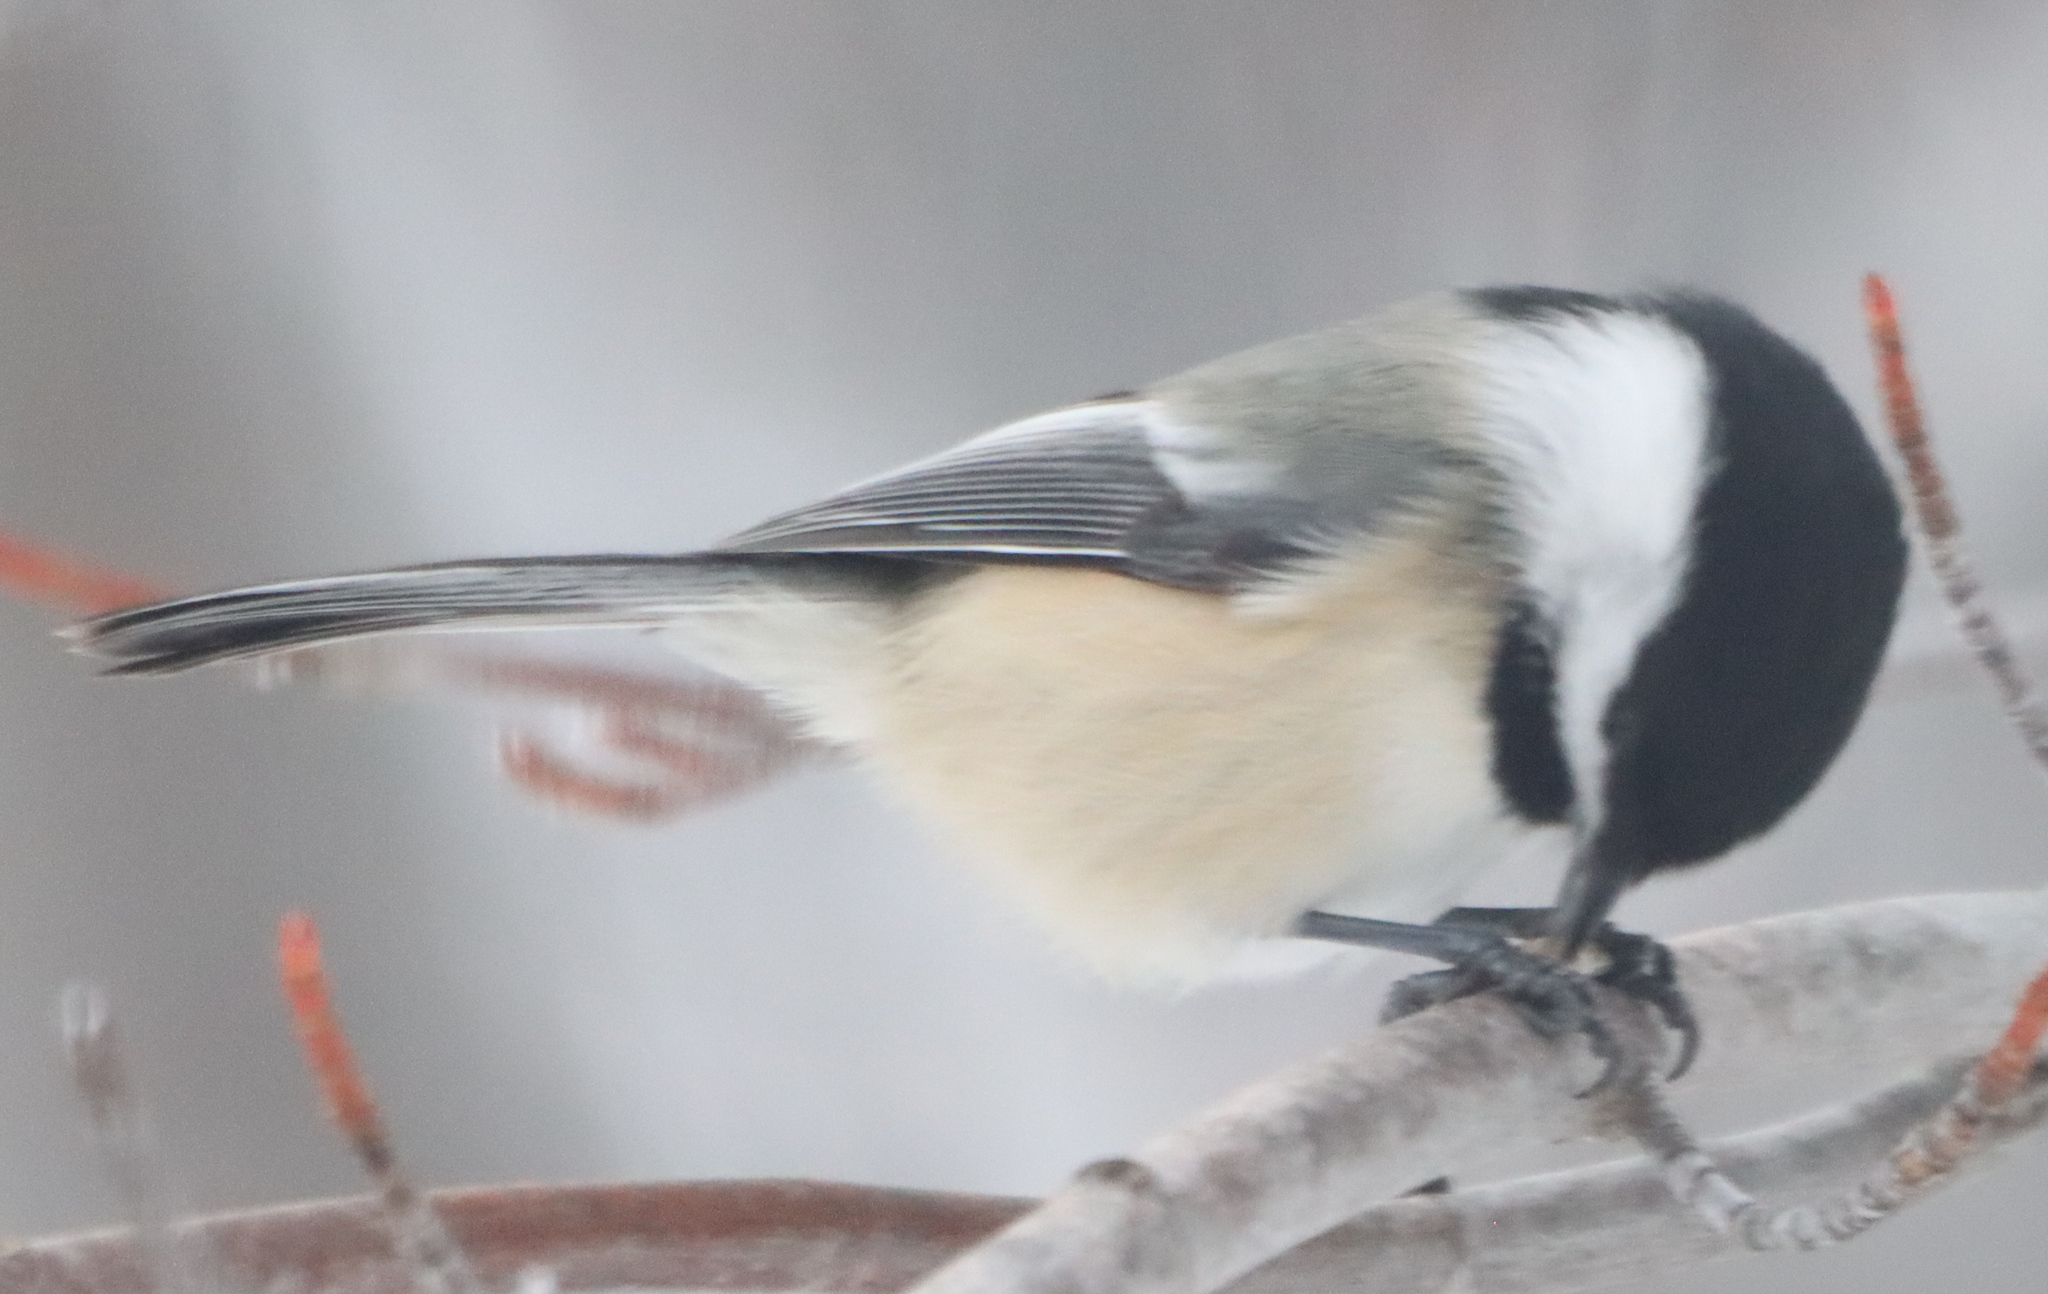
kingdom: Animalia
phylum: Chordata
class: Aves
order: Passeriformes
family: Paridae
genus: Poecile
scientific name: Poecile atricapillus
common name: Black-capped chickadee
